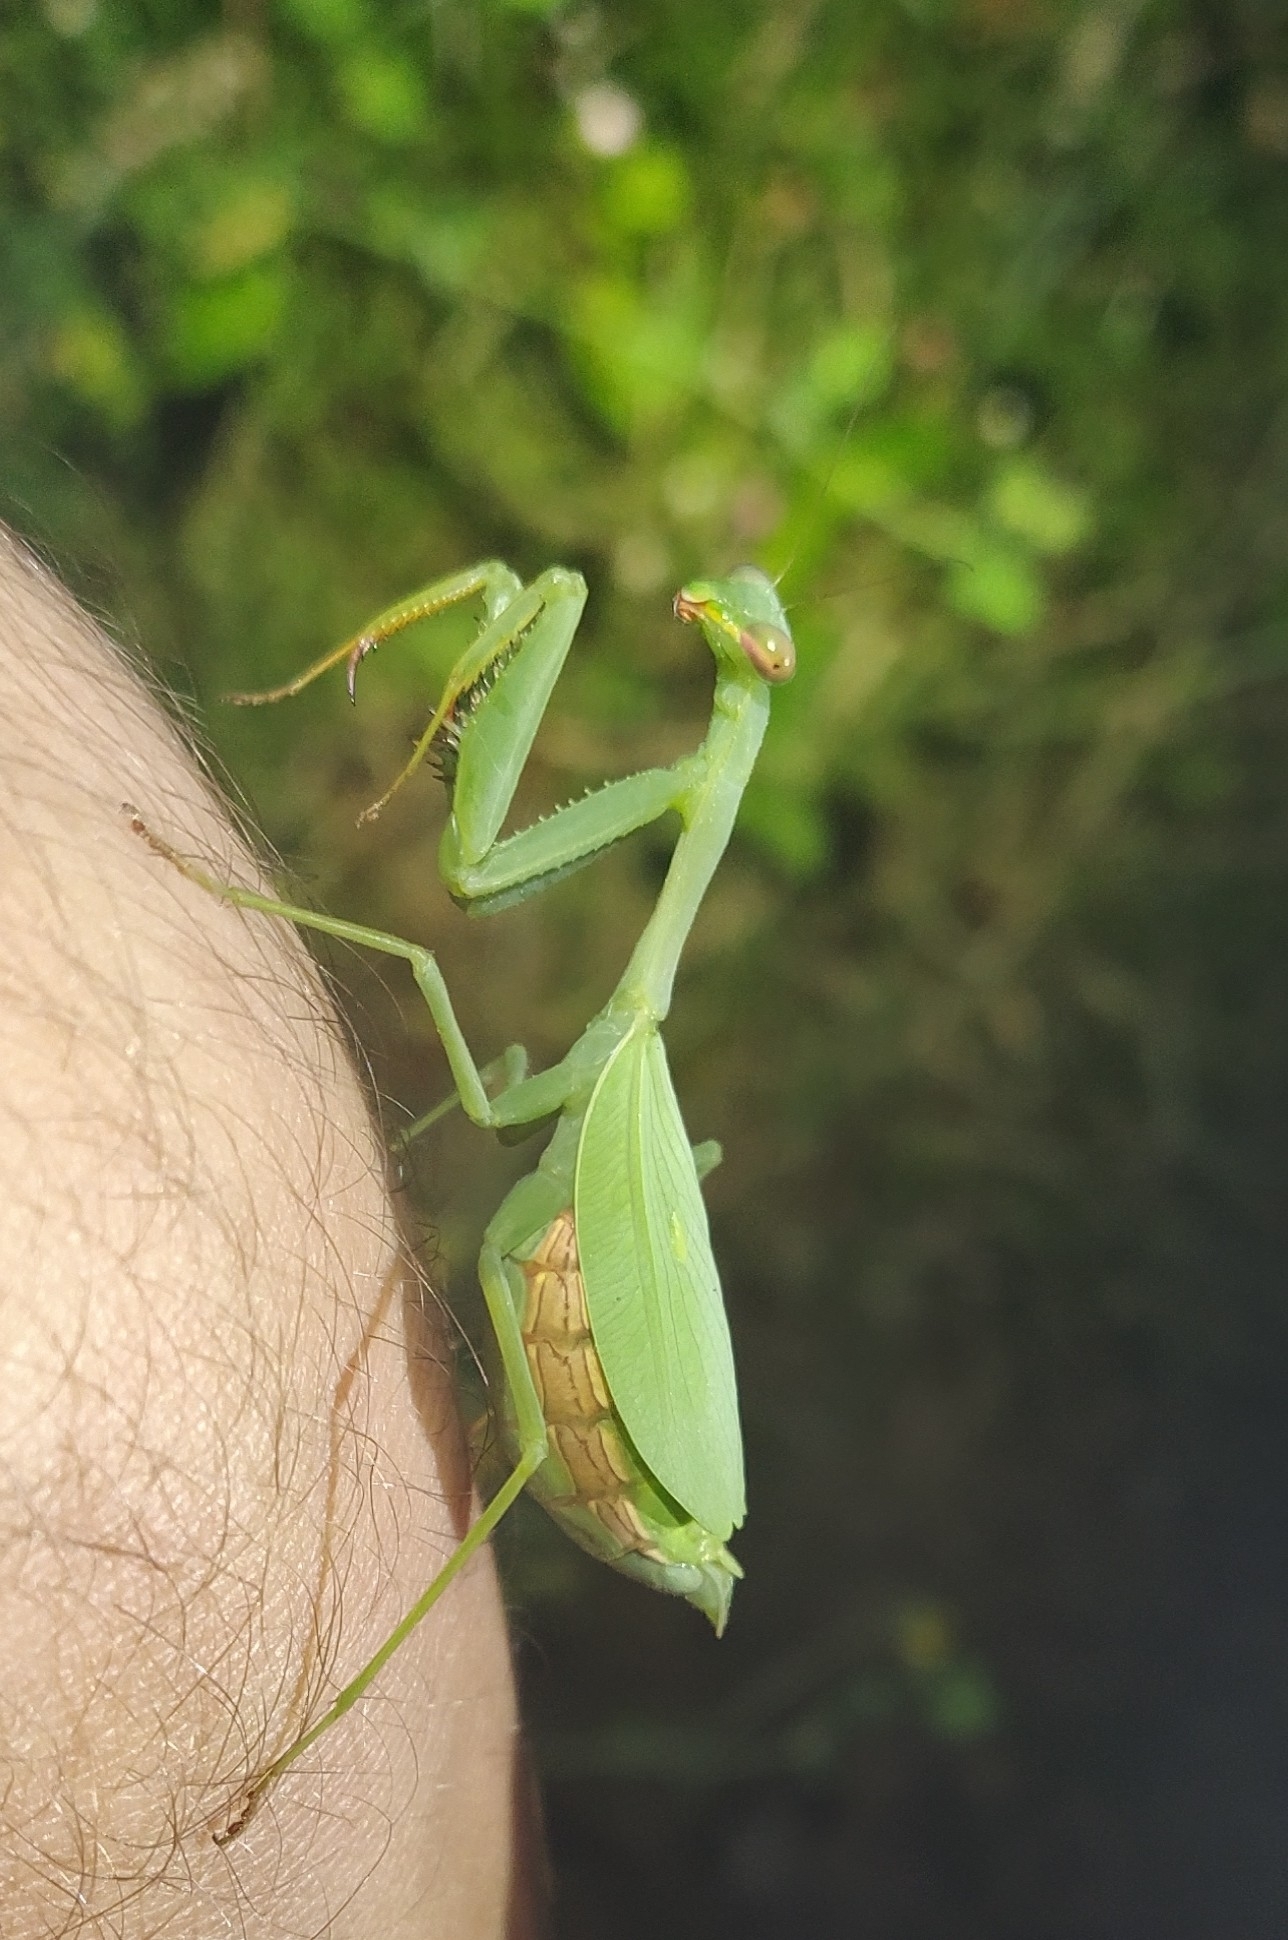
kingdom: Animalia
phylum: Arthropoda
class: Insecta
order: Mantodea
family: Miomantidae
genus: Miomantis
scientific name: Miomantis caffra
